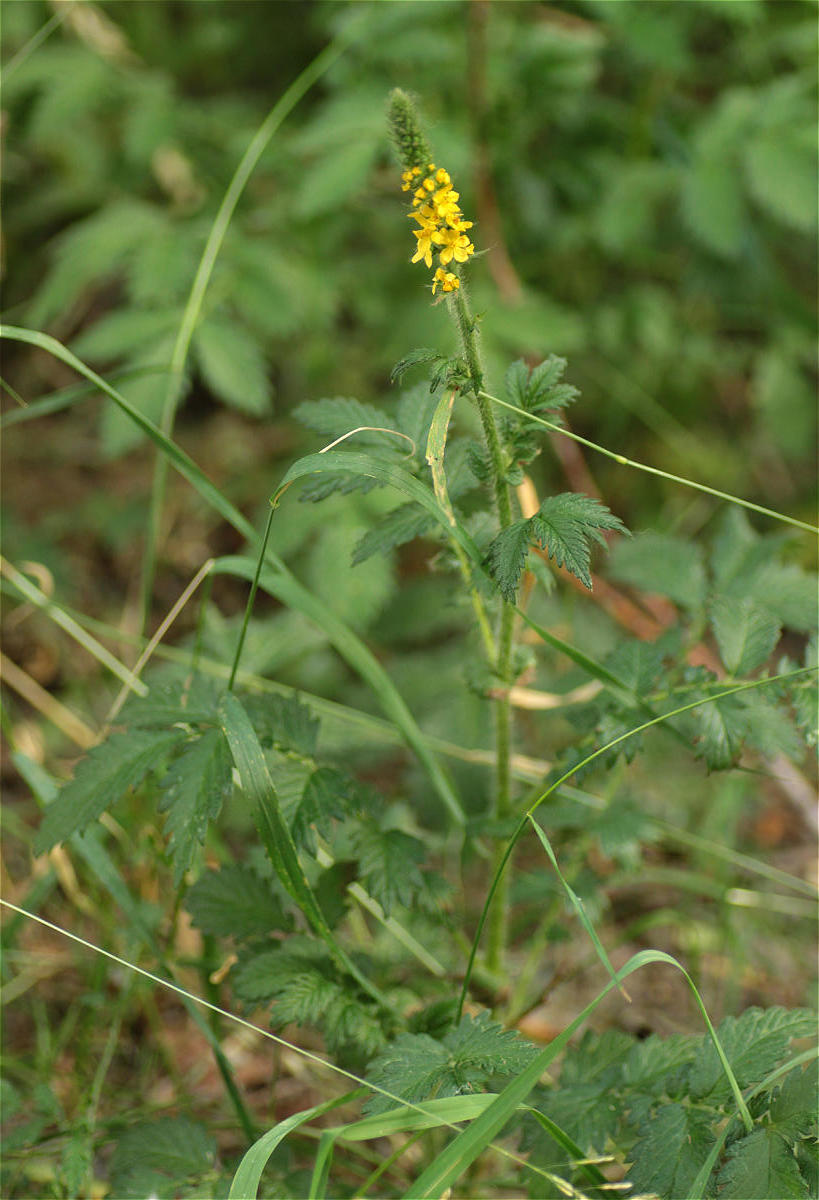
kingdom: Plantae
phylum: Tracheophyta
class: Magnoliopsida
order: Rosales
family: Rosaceae
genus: Agrimonia
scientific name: Agrimonia eupatoria
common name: Agrimony
